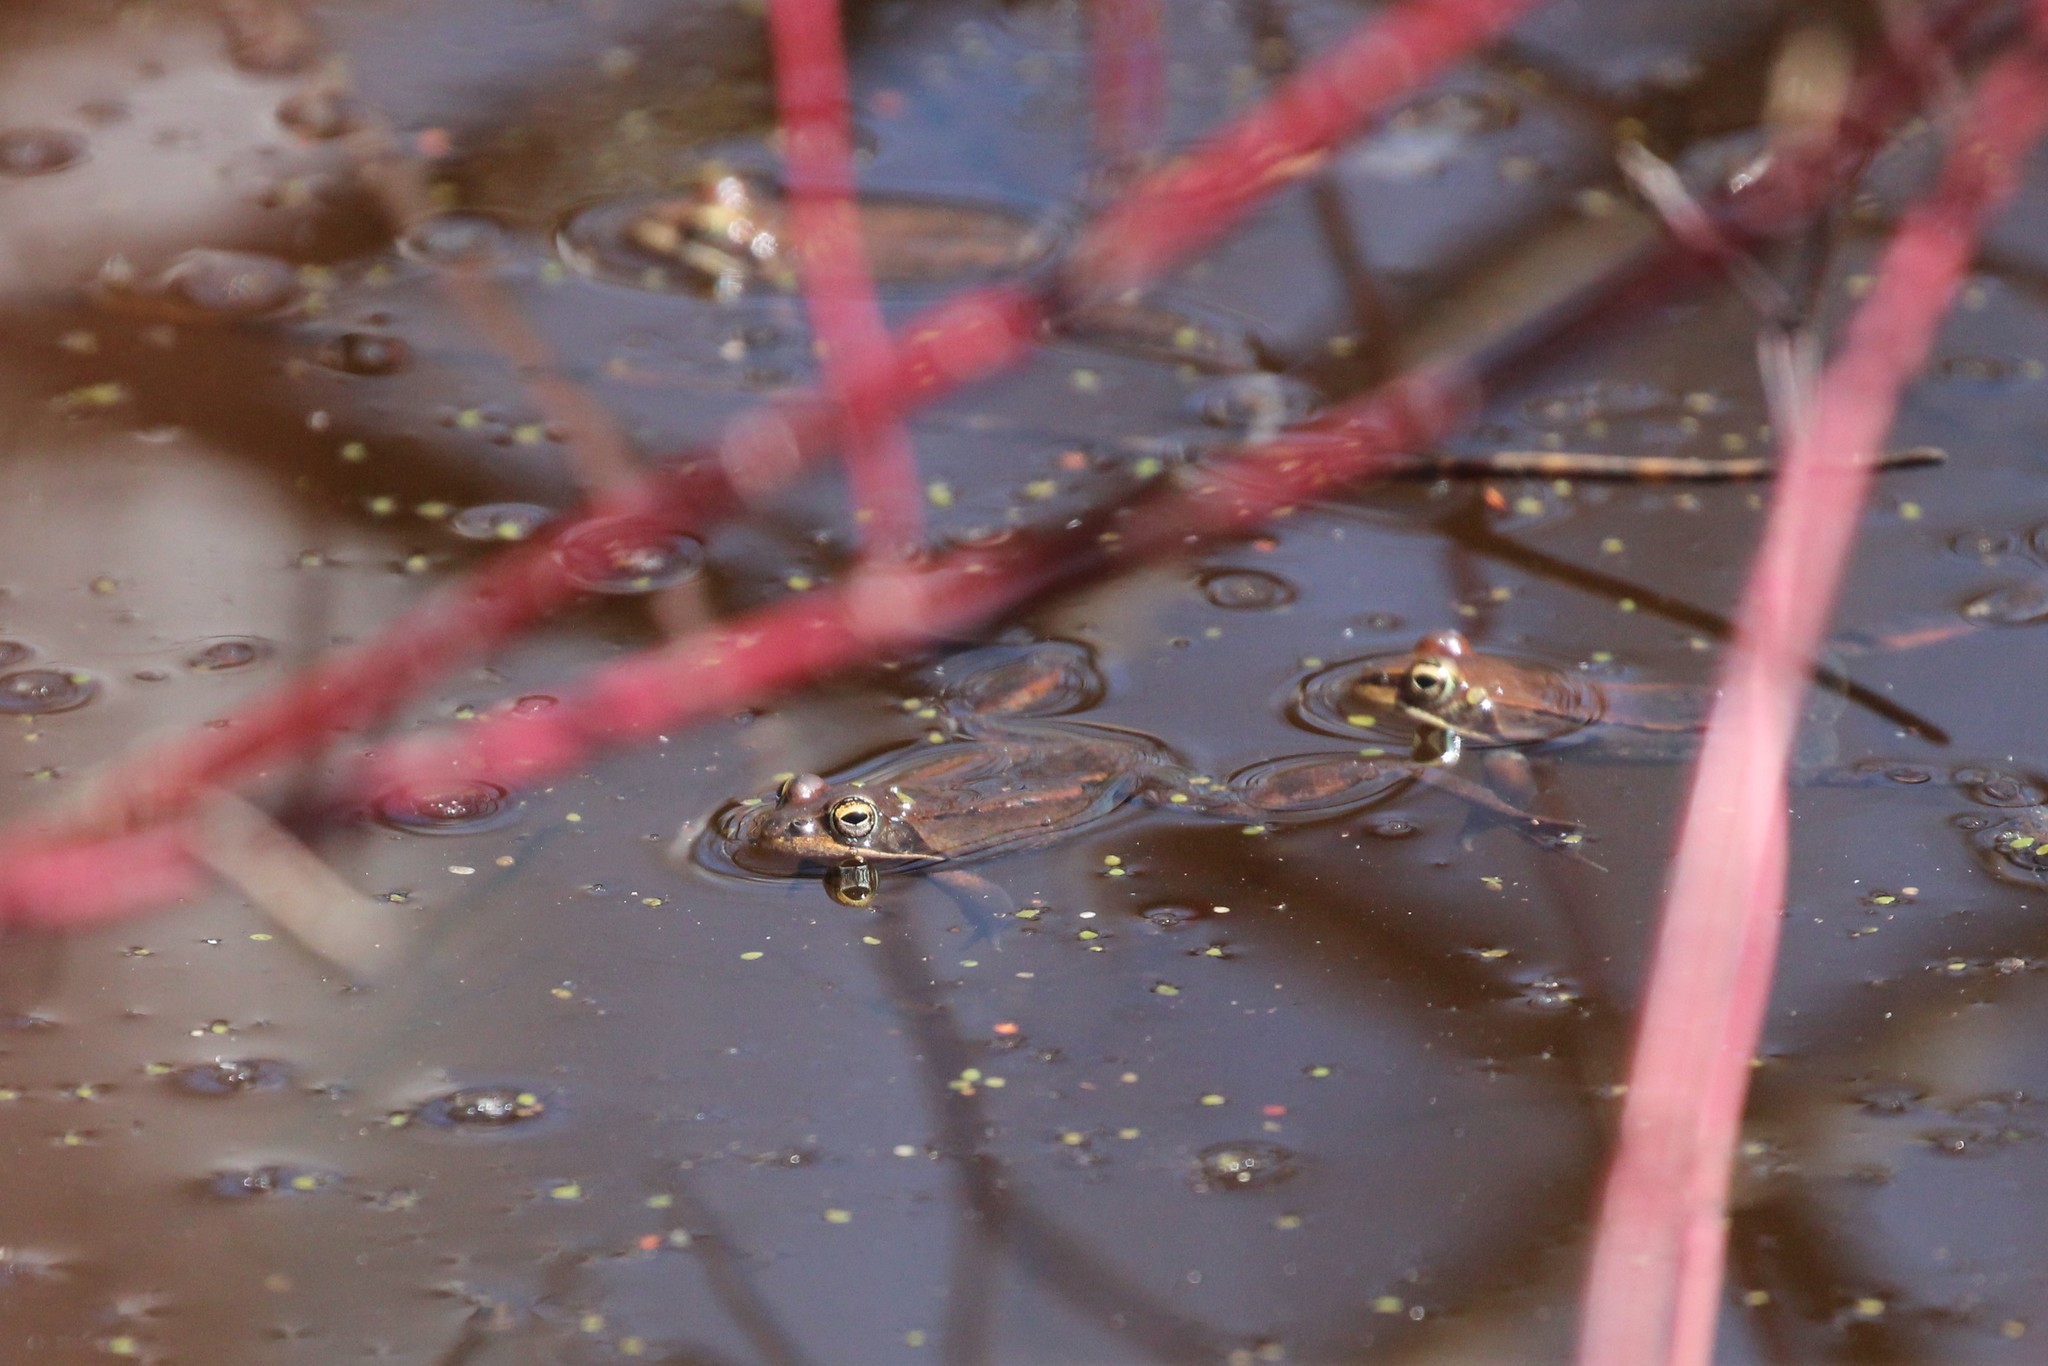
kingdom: Animalia
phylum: Chordata
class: Amphibia
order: Anura
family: Ranidae
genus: Lithobates
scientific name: Lithobates sylvaticus
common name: Wood frog
